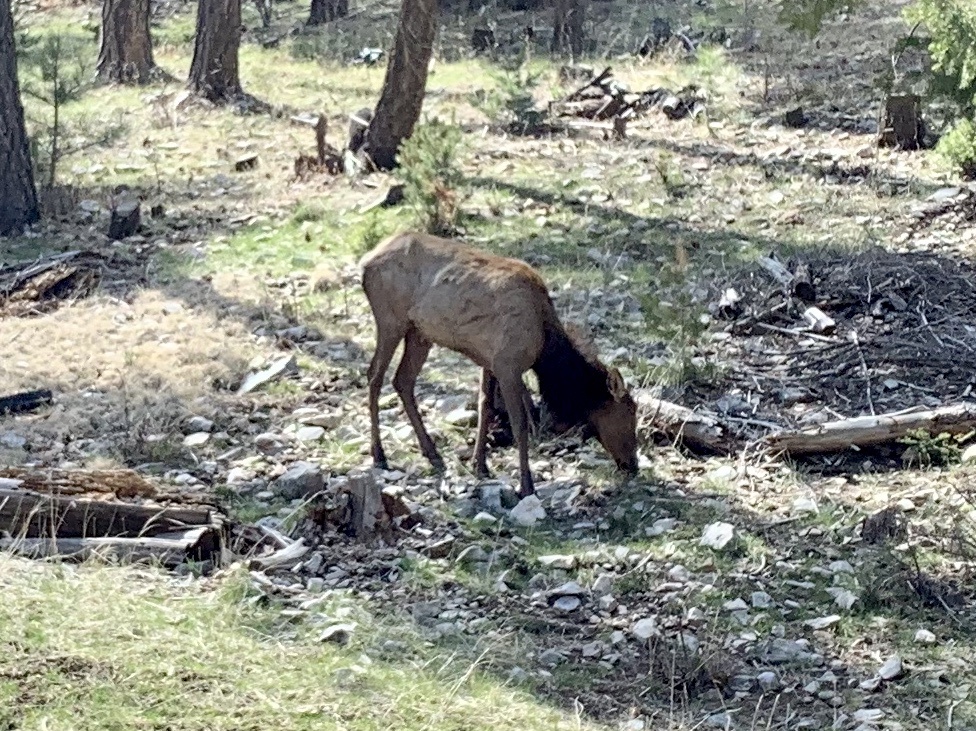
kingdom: Animalia
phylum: Chordata
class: Mammalia
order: Artiodactyla
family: Cervidae
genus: Cervus
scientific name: Cervus elaphus
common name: Red deer
